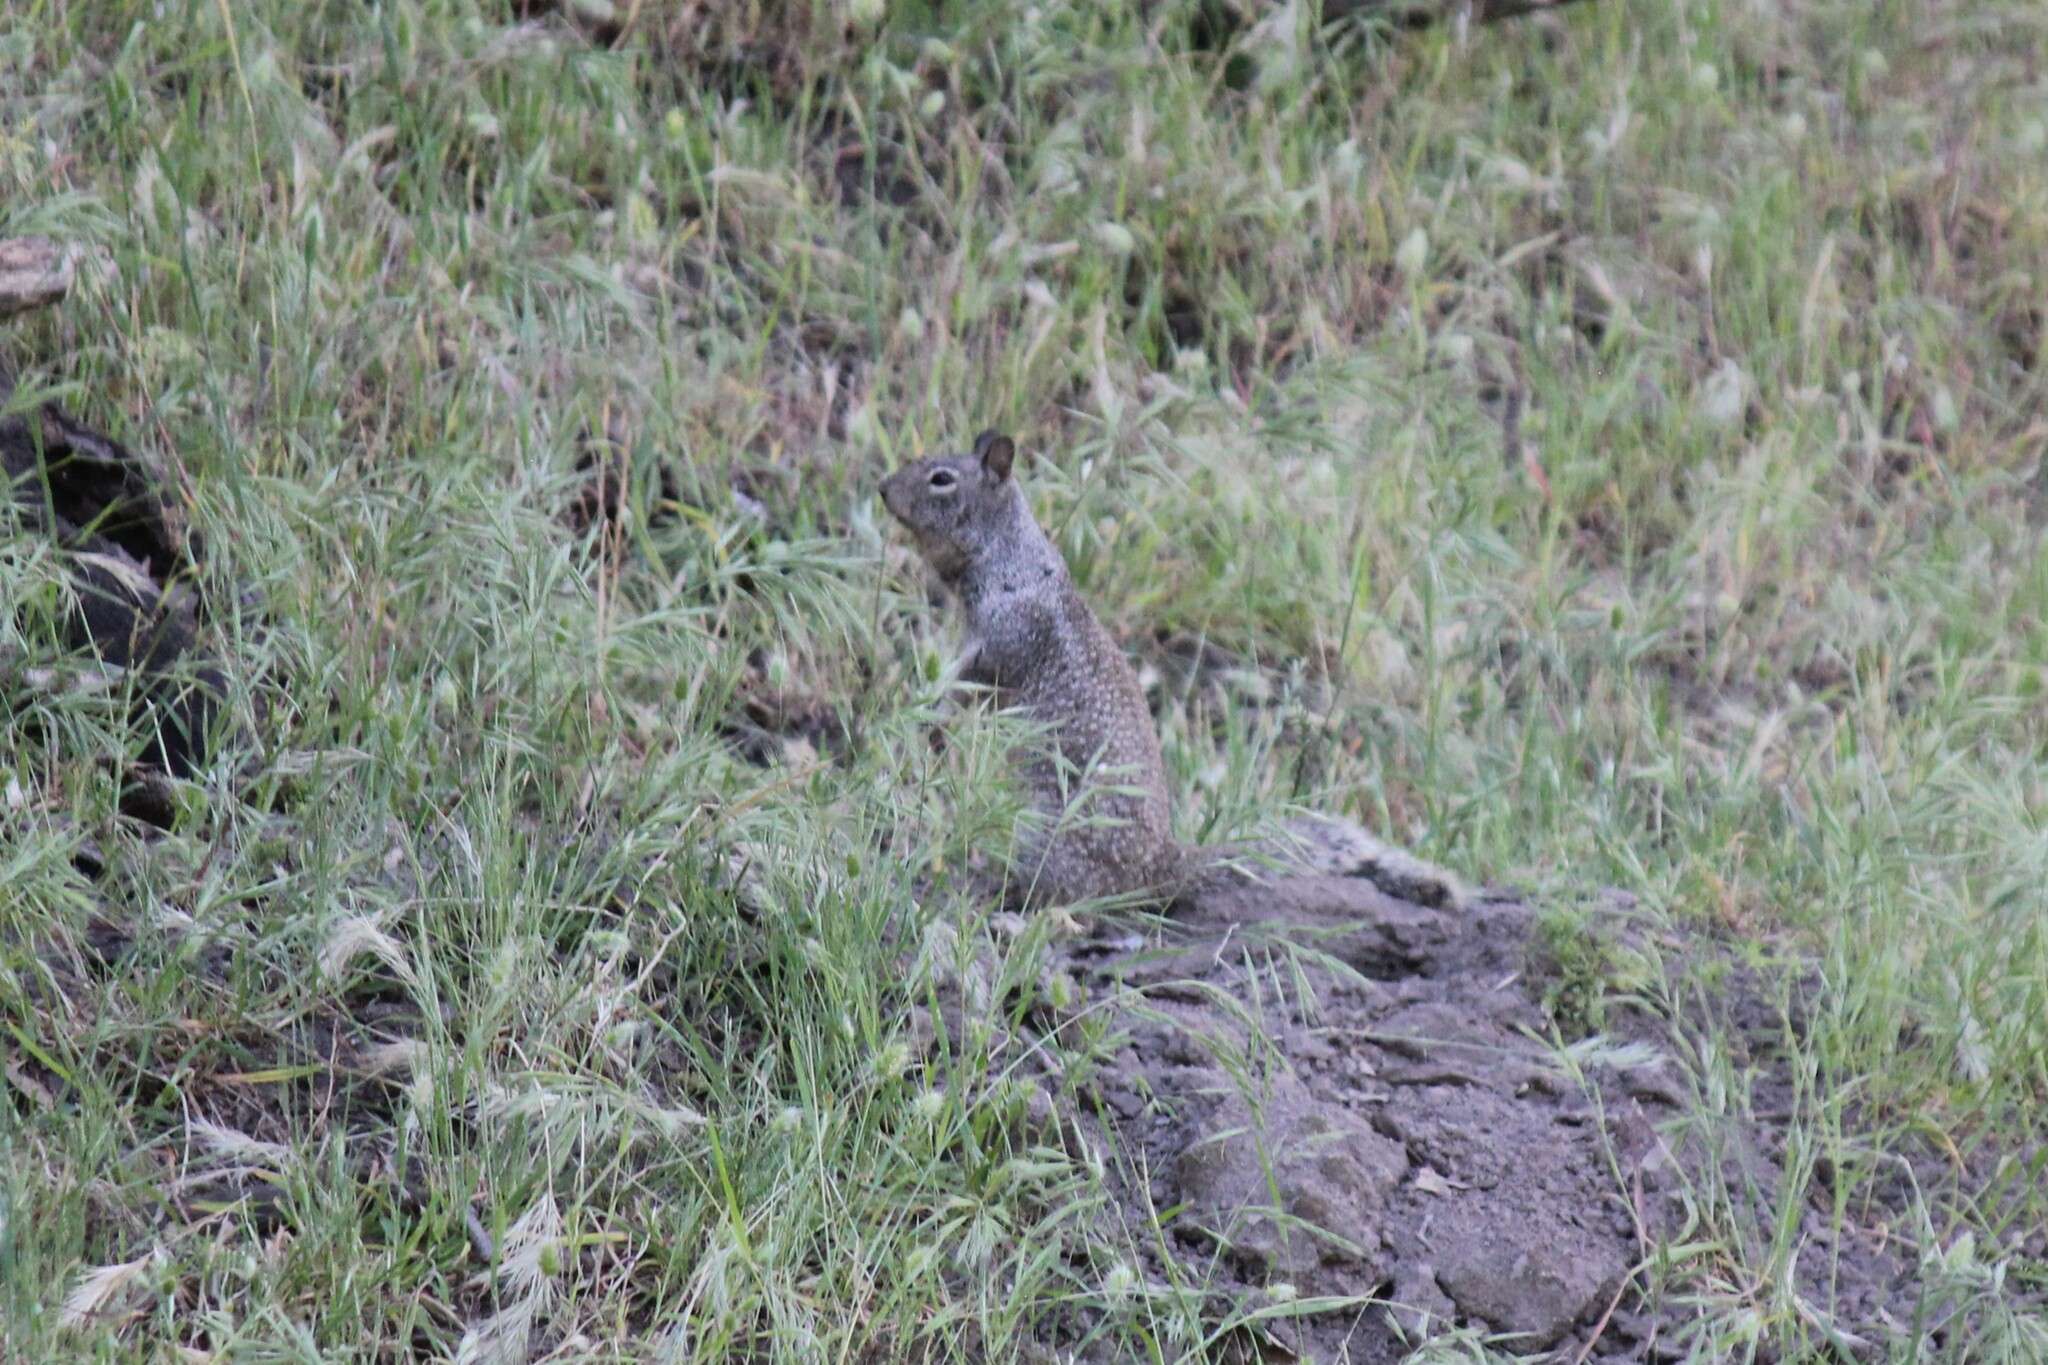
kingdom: Animalia
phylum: Chordata
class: Mammalia
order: Rodentia
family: Sciuridae
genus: Otospermophilus
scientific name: Otospermophilus beecheyi
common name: California ground squirrel
